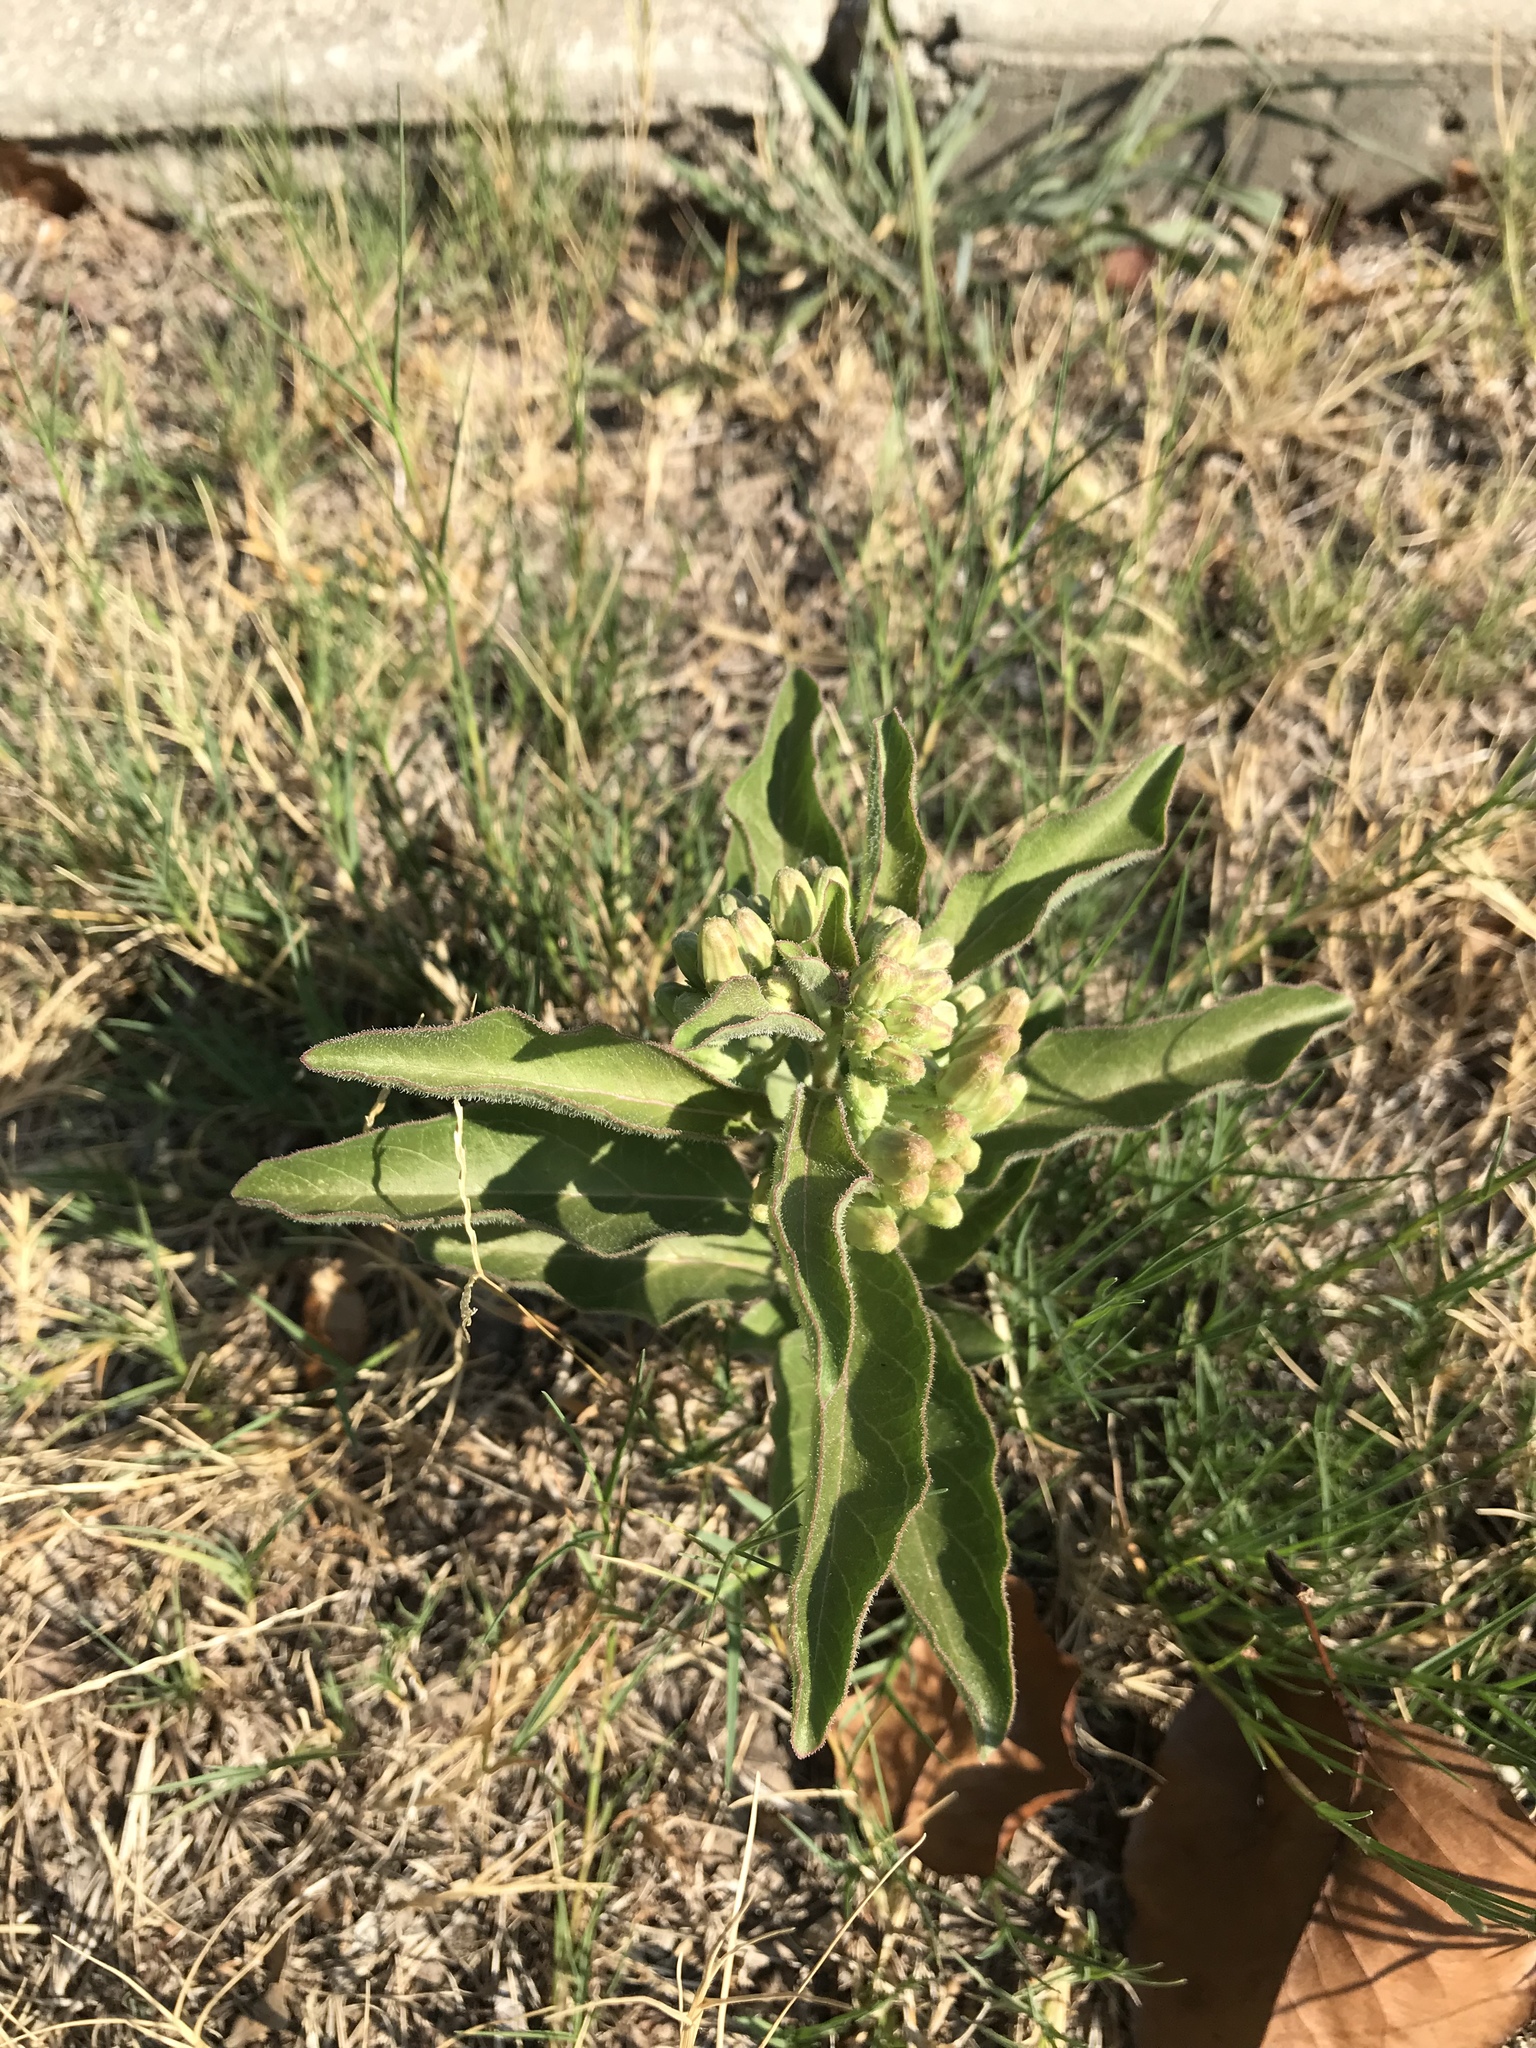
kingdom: Plantae
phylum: Tracheophyta
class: Magnoliopsida
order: Gentianales
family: Apocynaceae
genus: Asclepias
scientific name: Asclepias oenotheroides
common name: Zizotes milkweed
